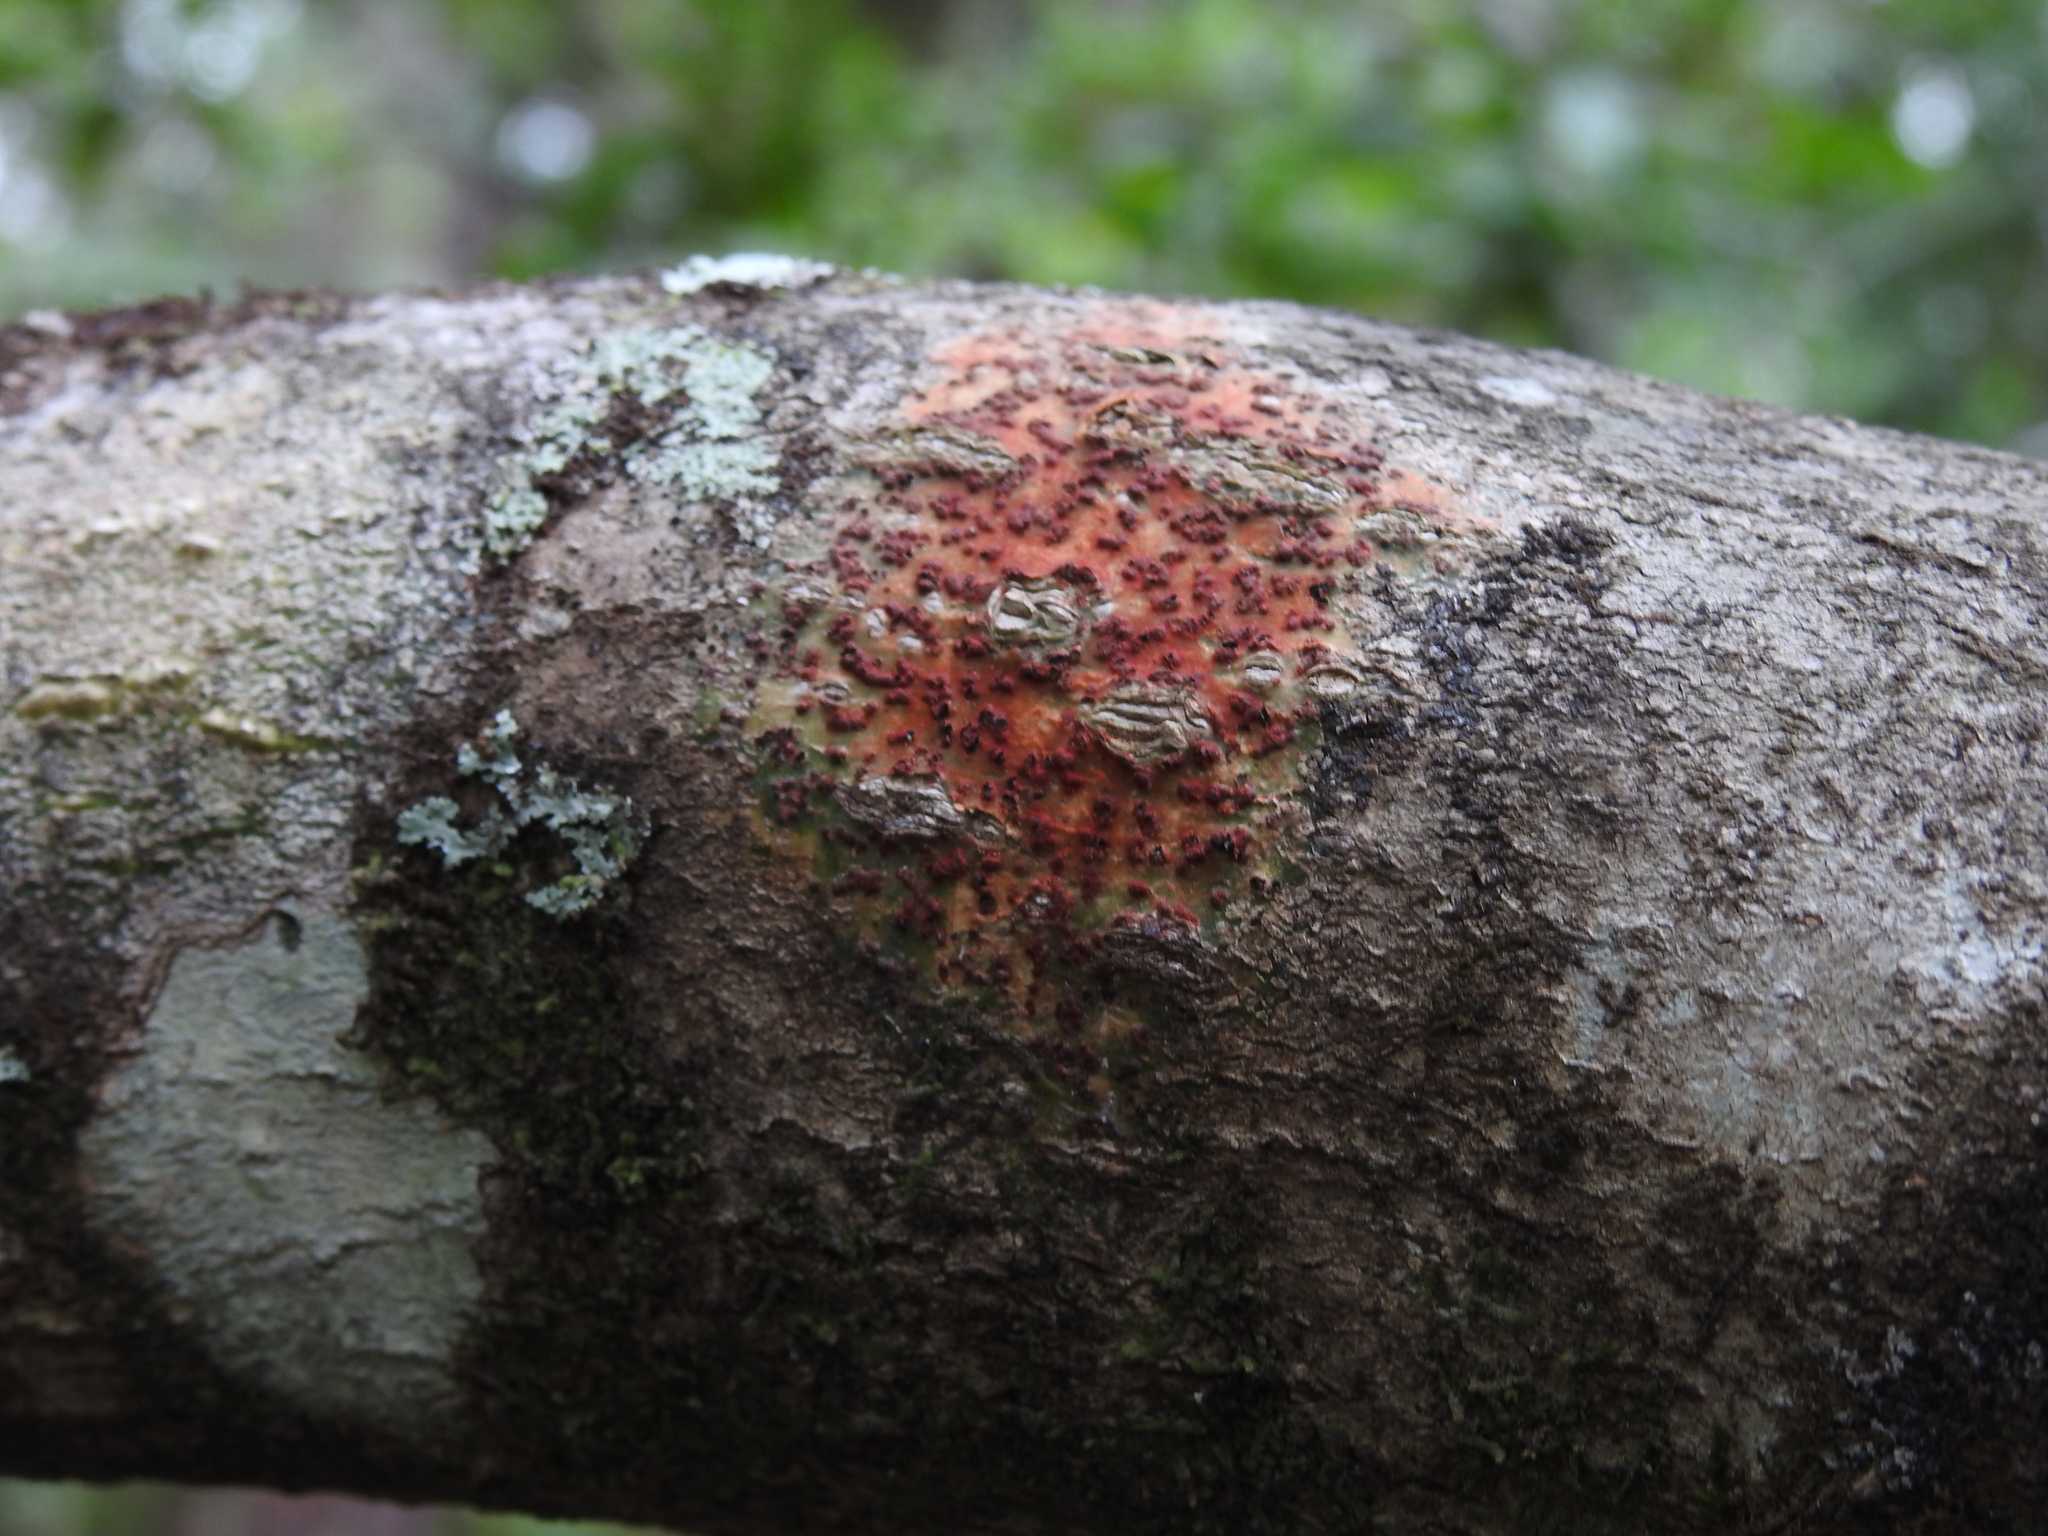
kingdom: Fungi
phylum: Ascomycota
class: Eurotiomycetes
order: Pyrenulales
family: Pyrenulaceae
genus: Pyrenula
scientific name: Pyrenula cruenta
